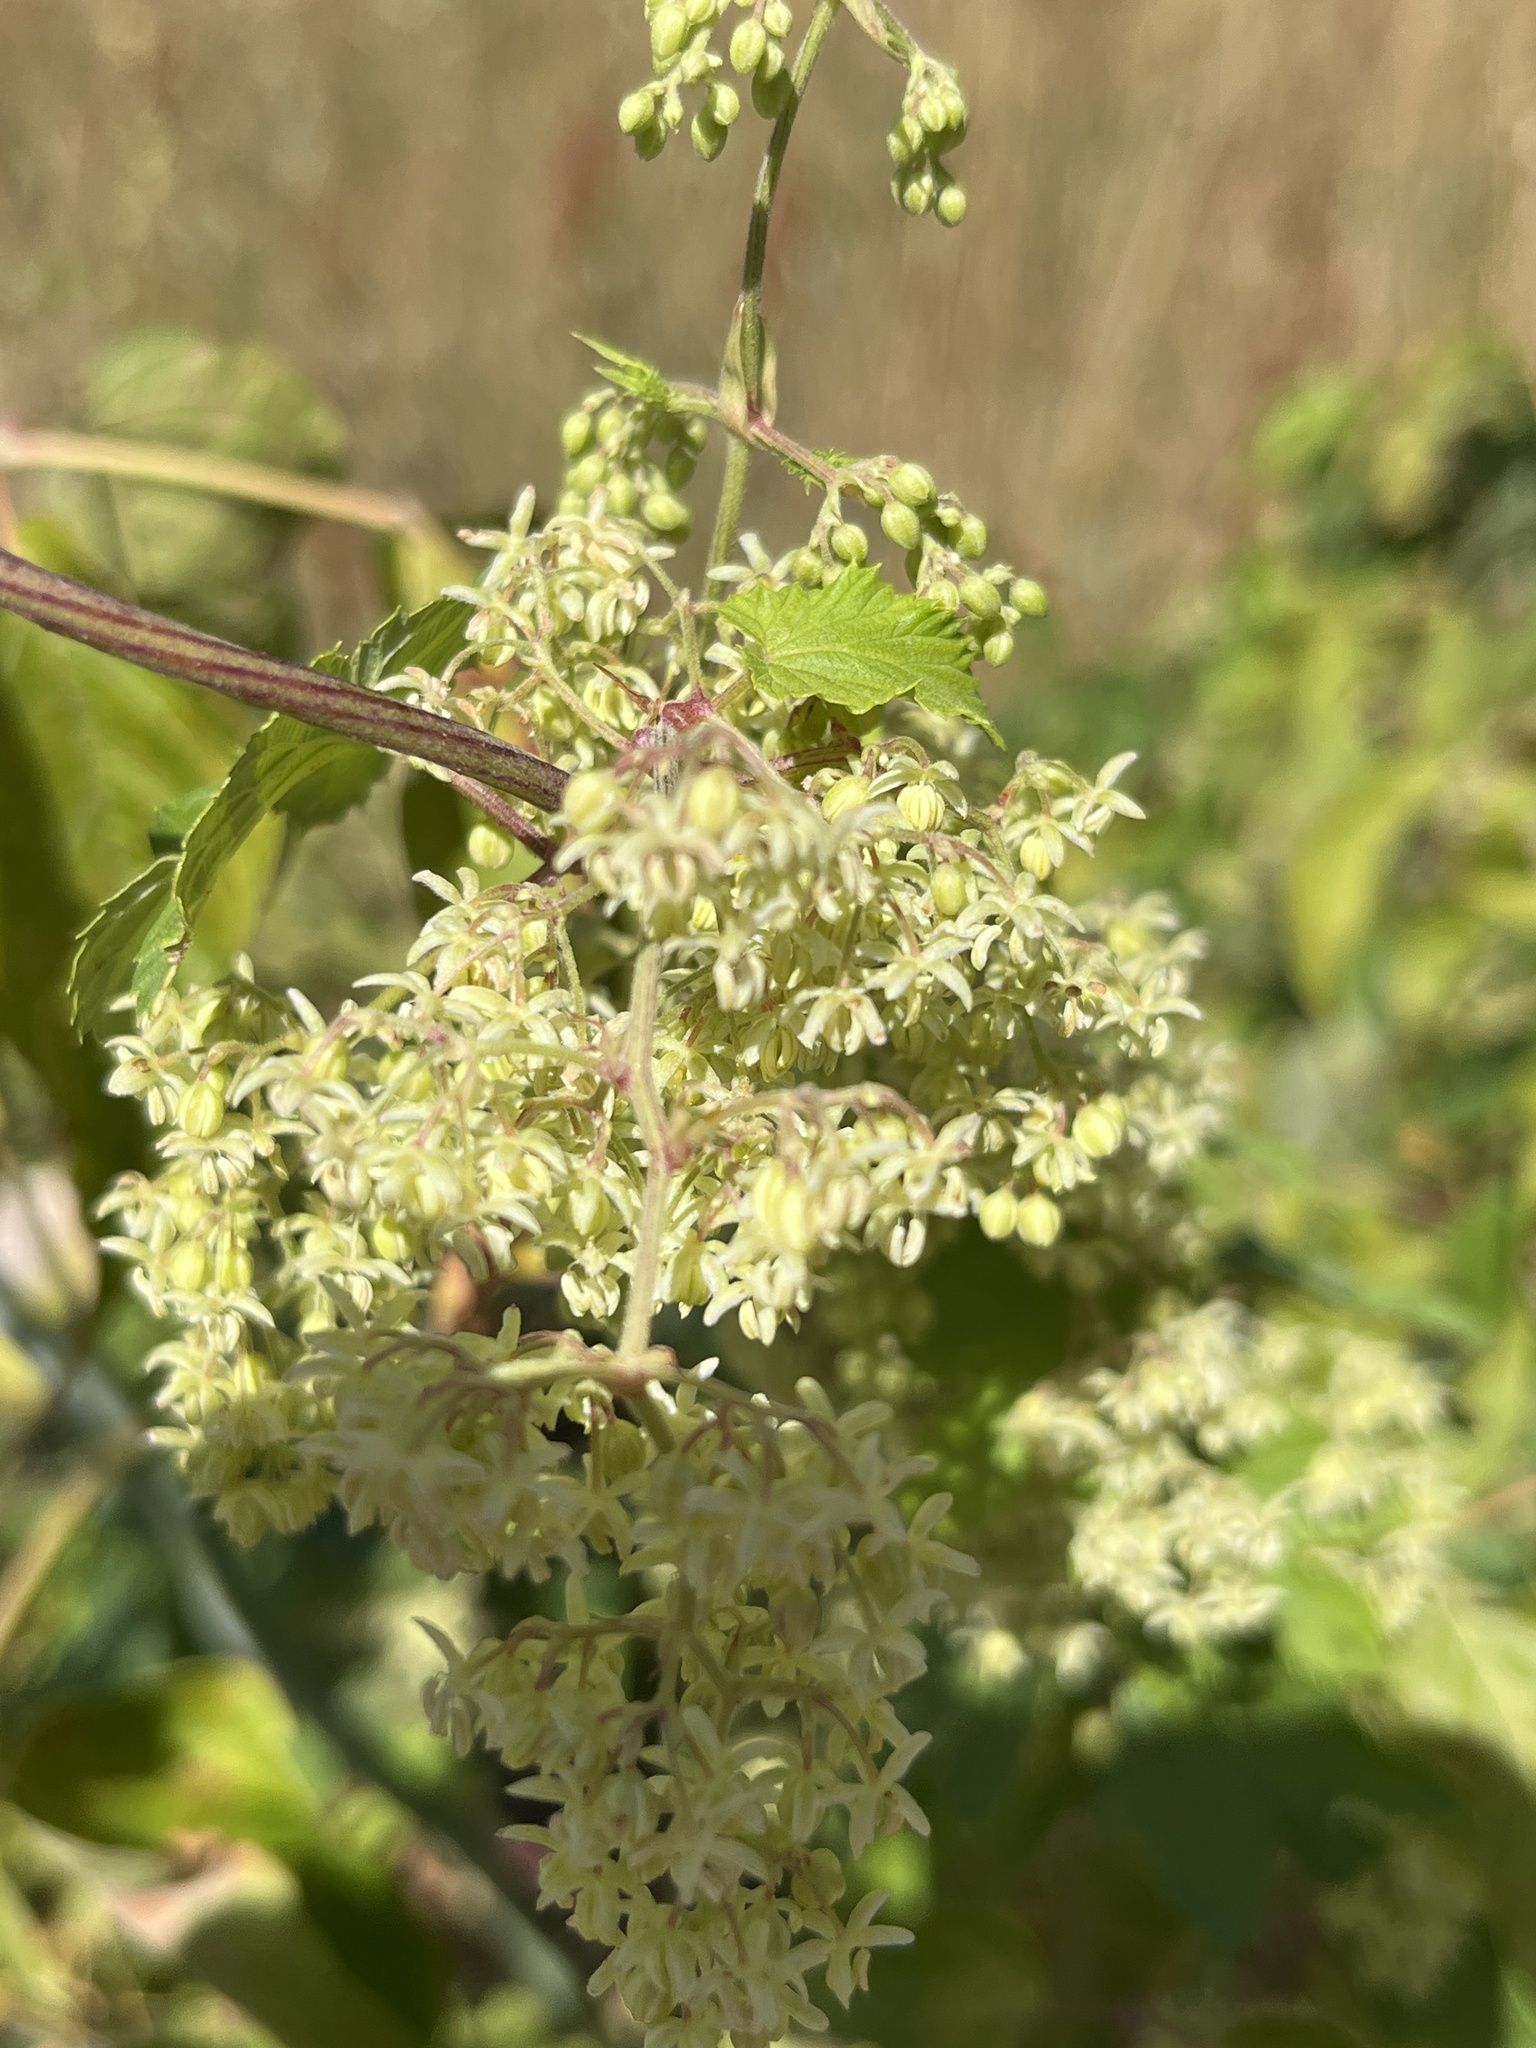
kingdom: Plantae
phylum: Tracheophyta
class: Magnoliopsida
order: Rosales
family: Cannabaceae
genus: Humulus
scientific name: Humulus lupulus
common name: Hop
